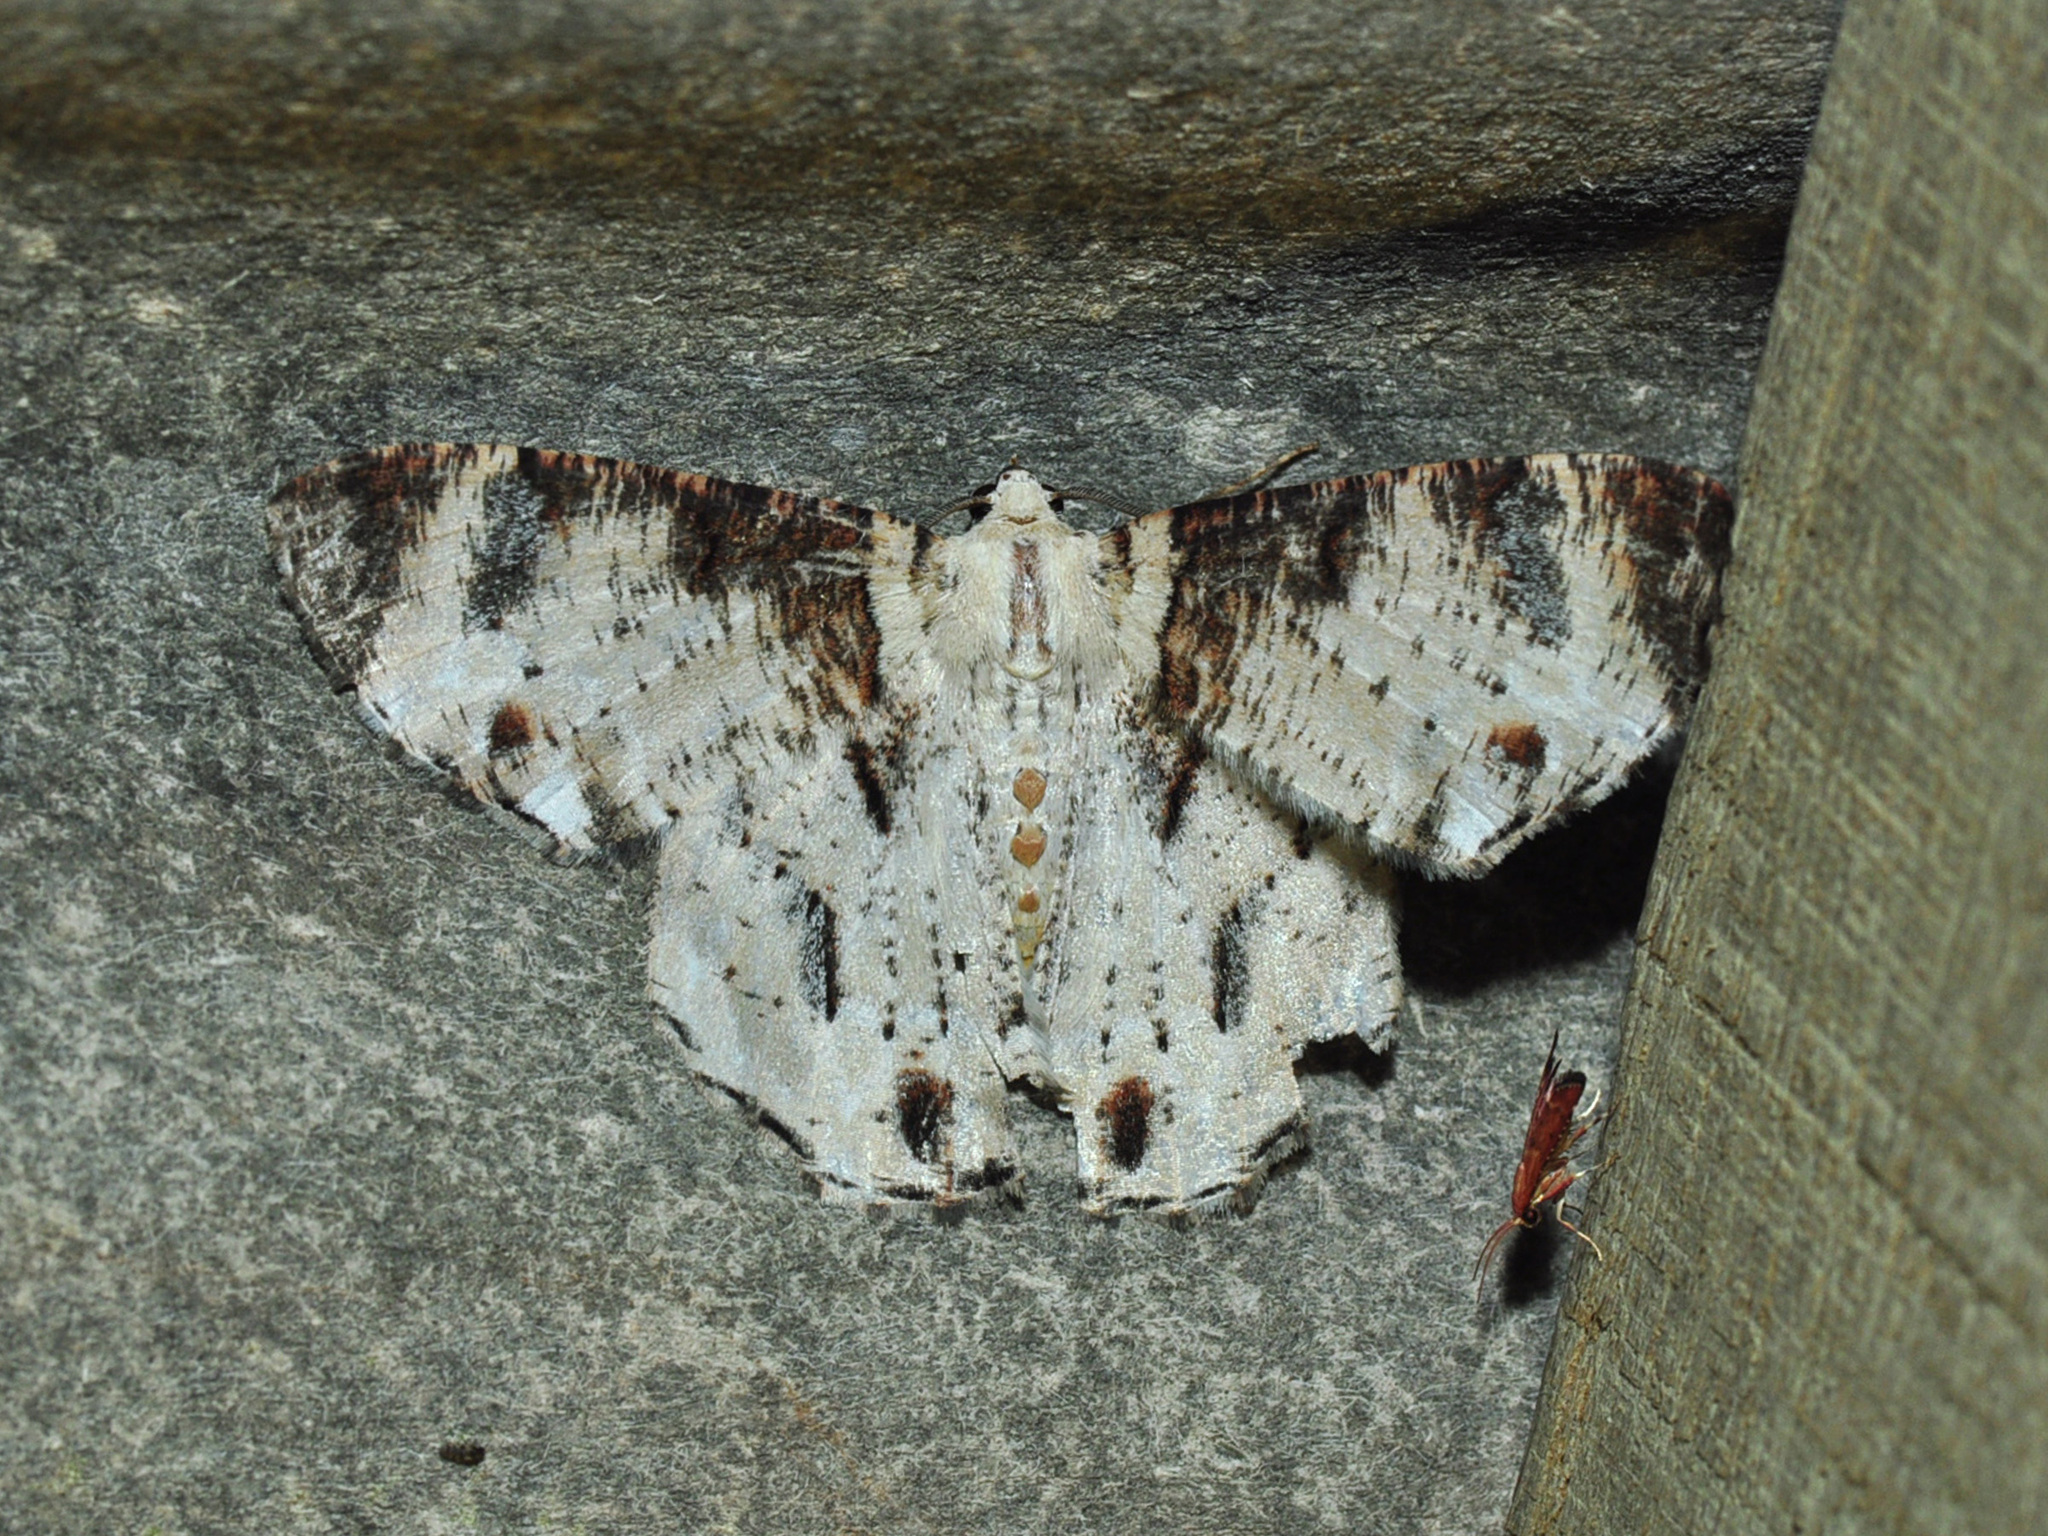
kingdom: Animalia
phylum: Arthropoda
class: Insecta
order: Lepidoptera
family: Geometridae
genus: Pachyodes
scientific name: Pachyodes pratti
